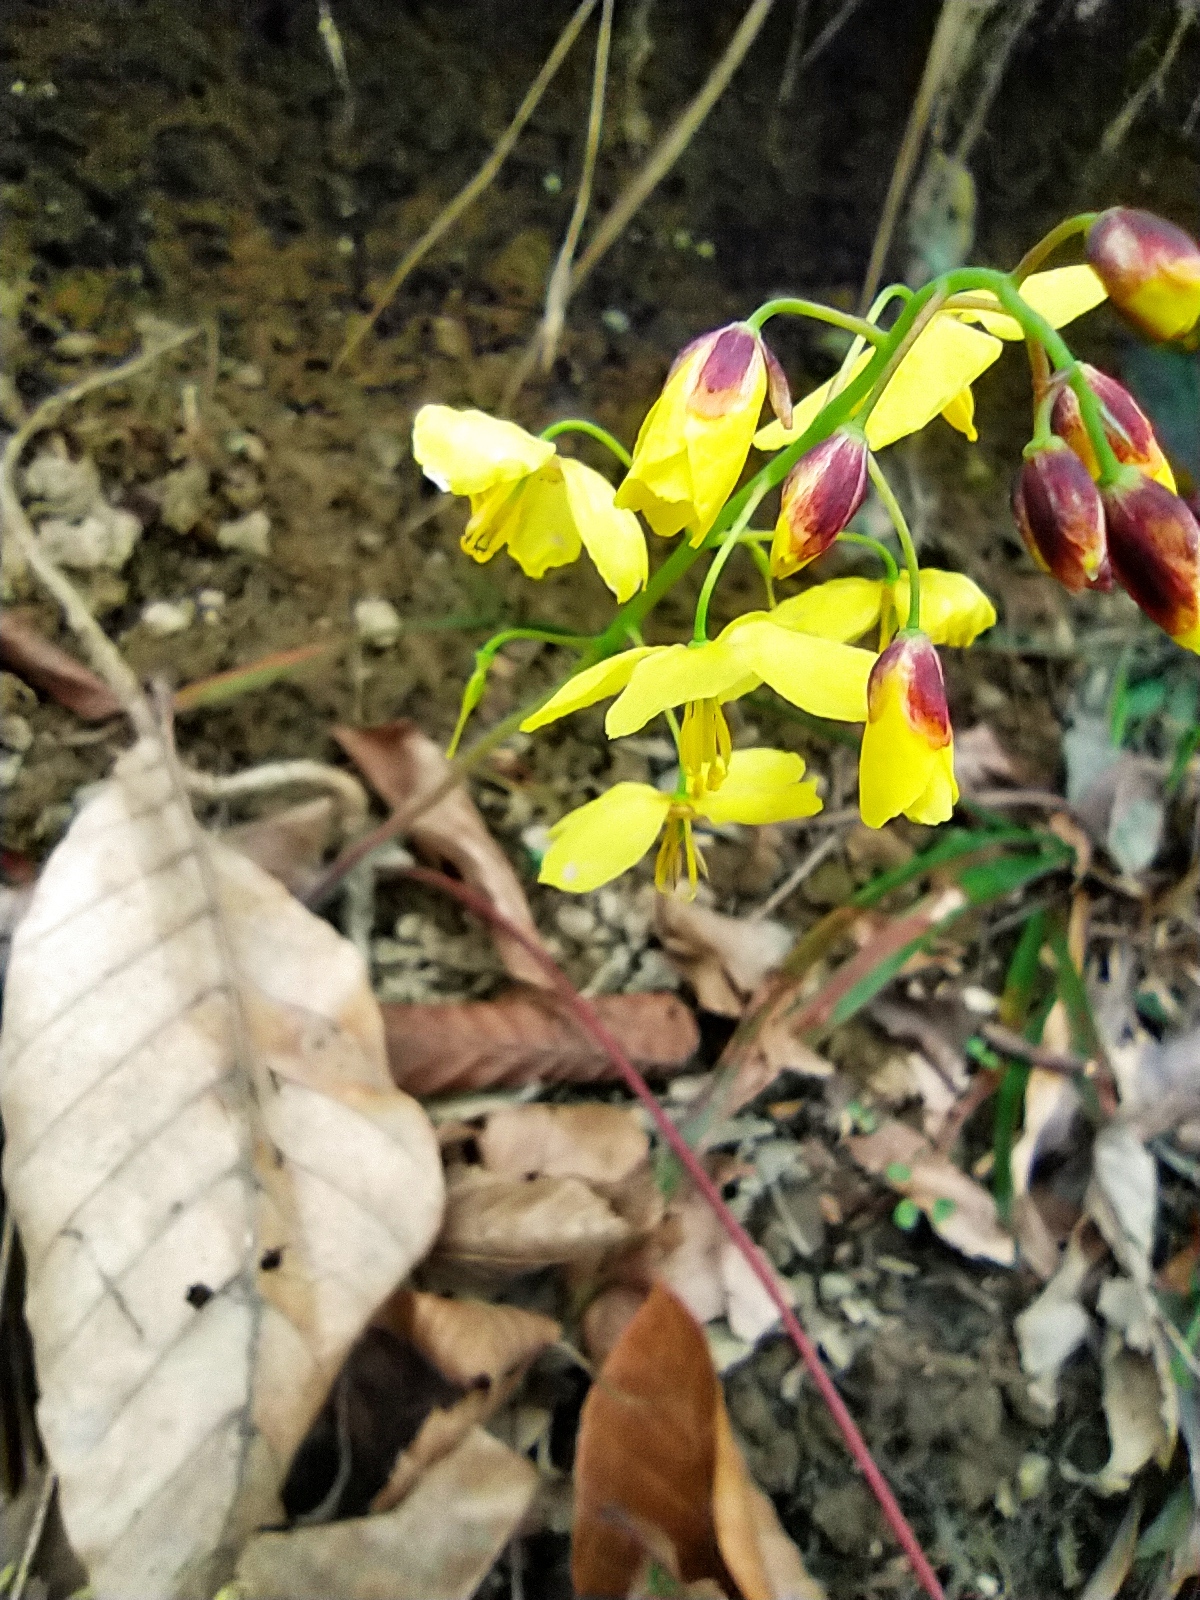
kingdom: Plantae
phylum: Tracheophyta
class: Magnoliopsida
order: Ranunculales
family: Berberidaceae
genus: Epimedium
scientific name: Epimedium pinnatum
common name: Caucasian barrenwort
